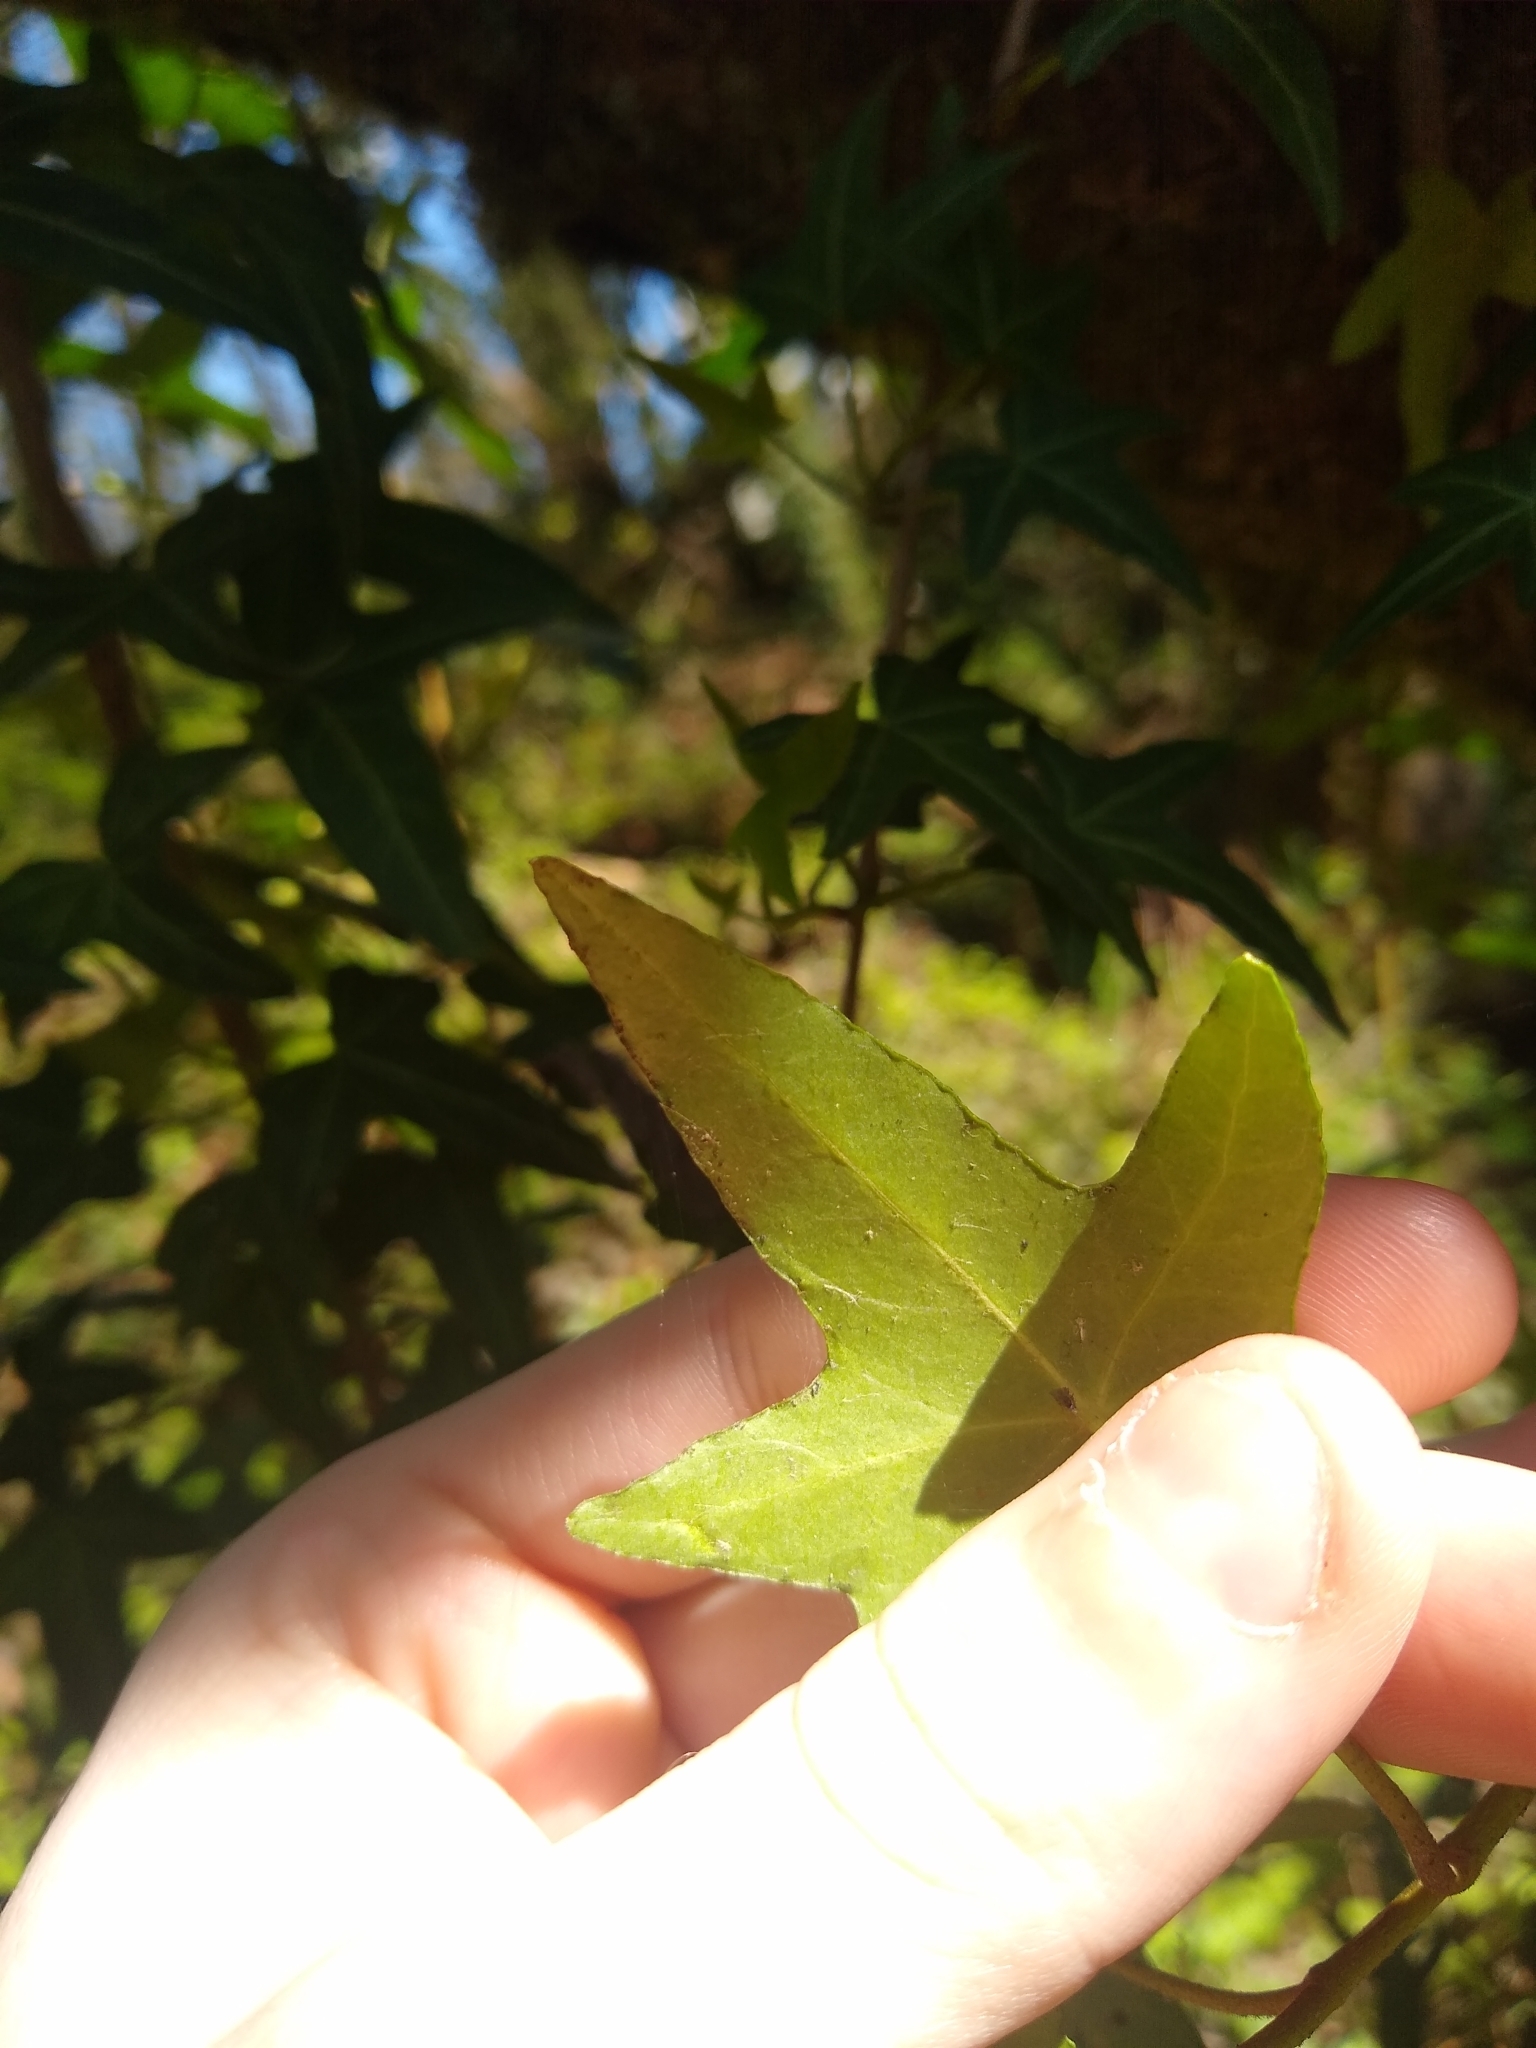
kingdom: Plantae
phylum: Tracheophyta
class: Magnoliopsida
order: Apiales
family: Araliaceae
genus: Hedera
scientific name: Hedera helix
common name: Ivy
